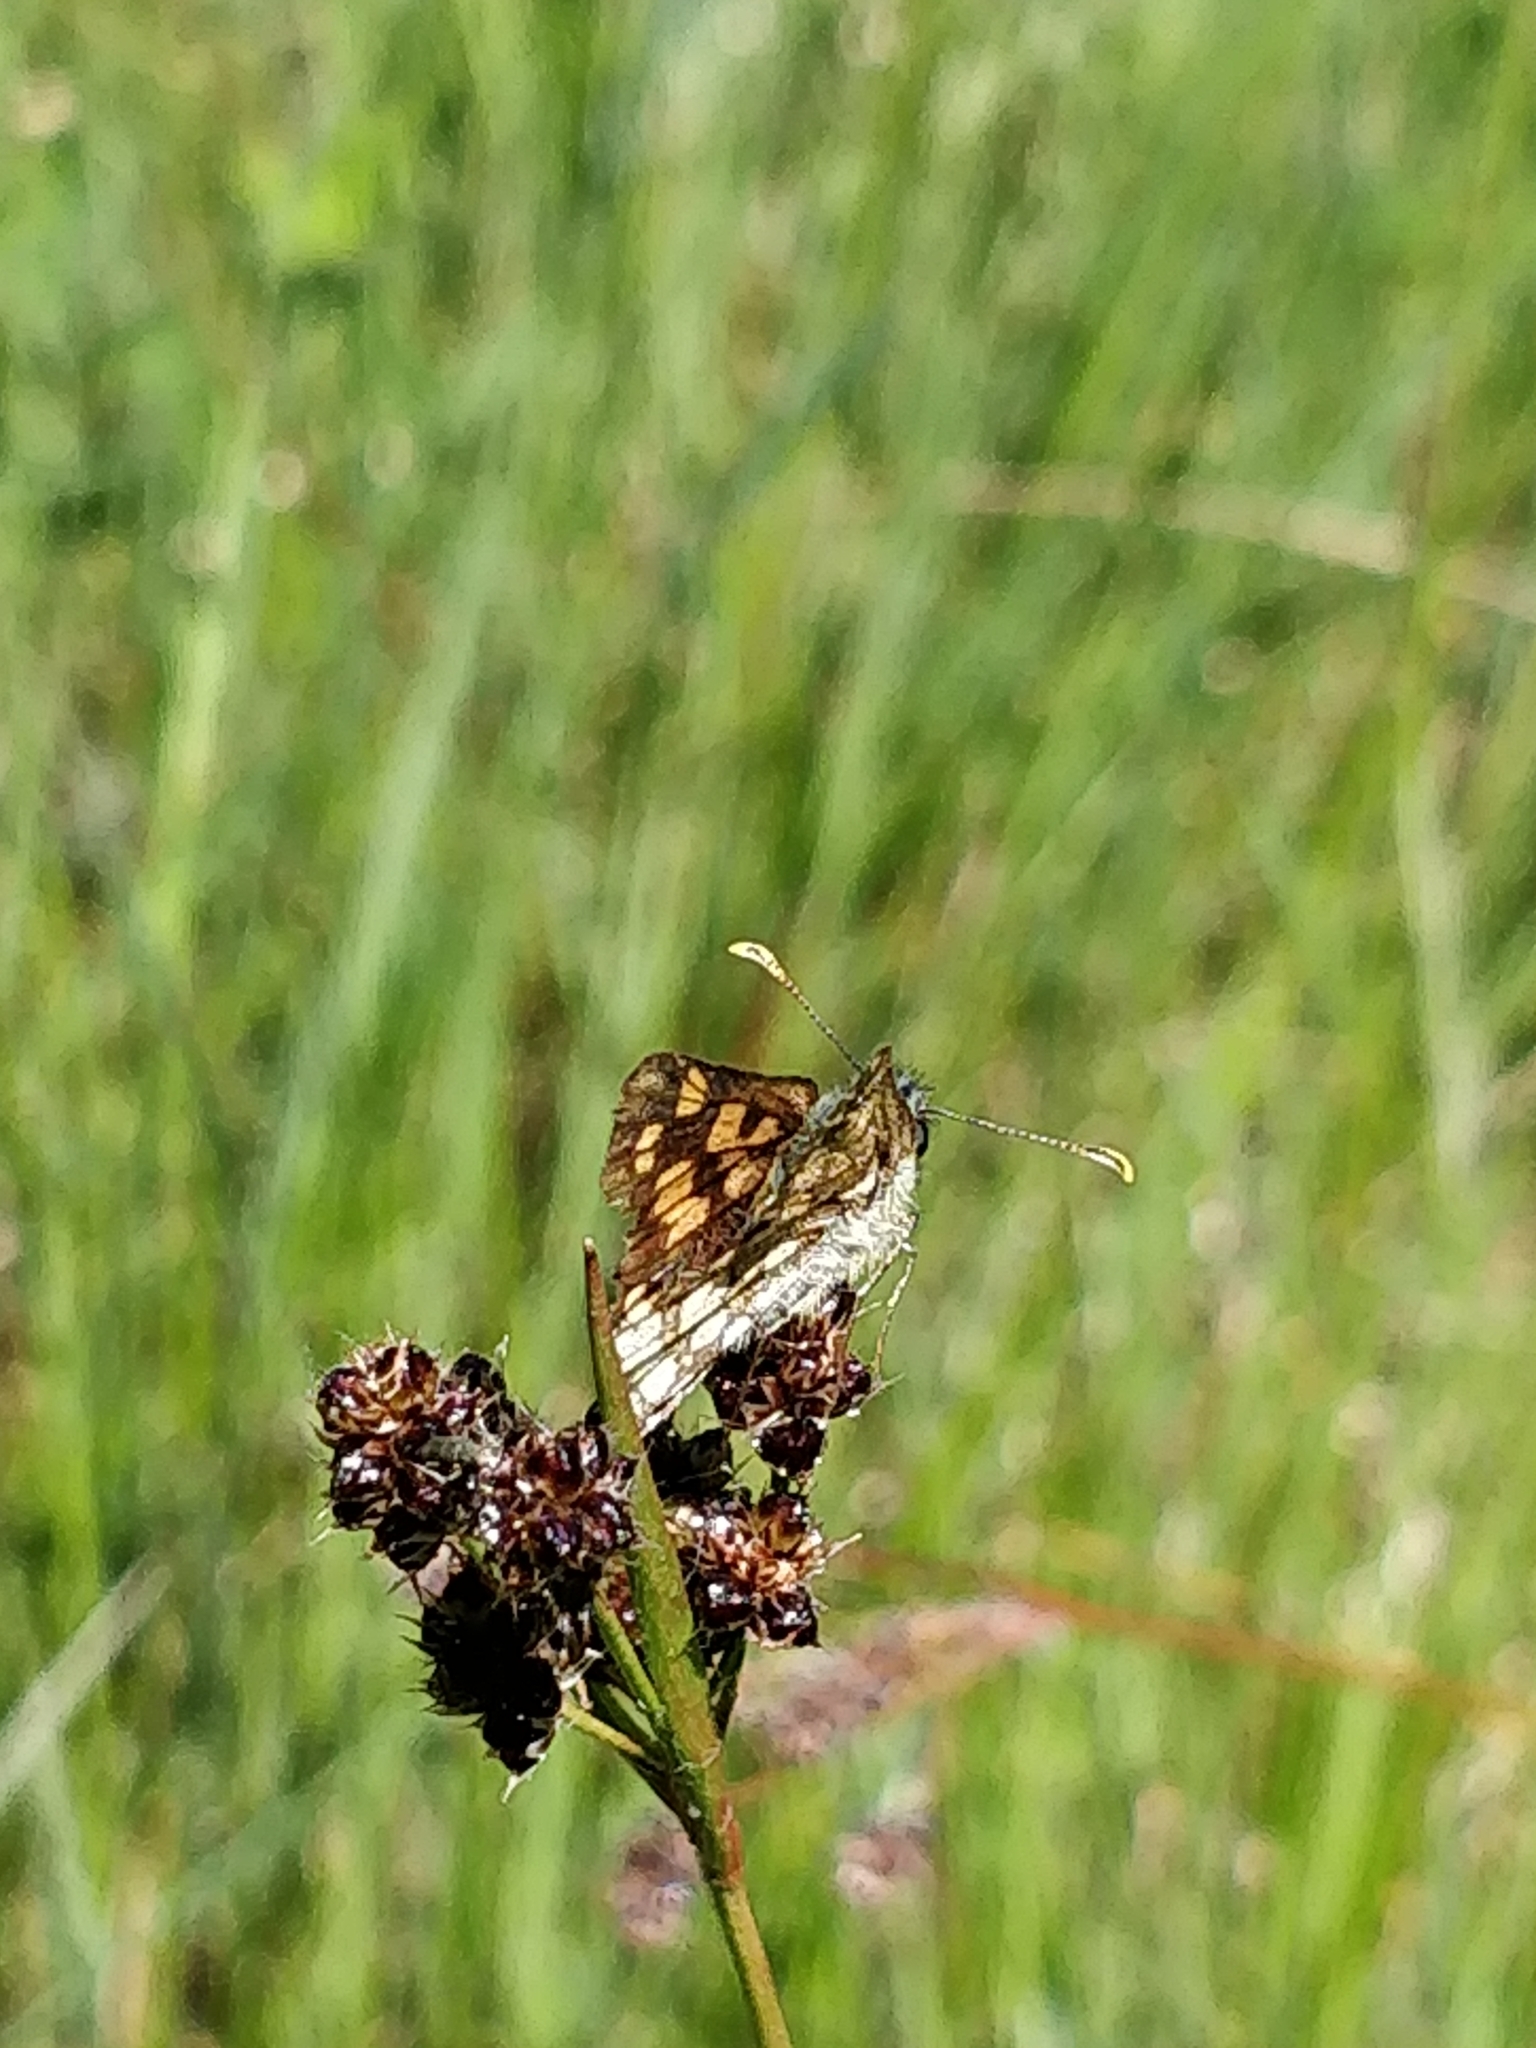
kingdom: Animalia
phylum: Arthropoda
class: Insecta
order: Lepidoptera
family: Hesperiidae
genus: Carterocephalus
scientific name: Carterocephalus palaemon
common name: Chequered skipper
